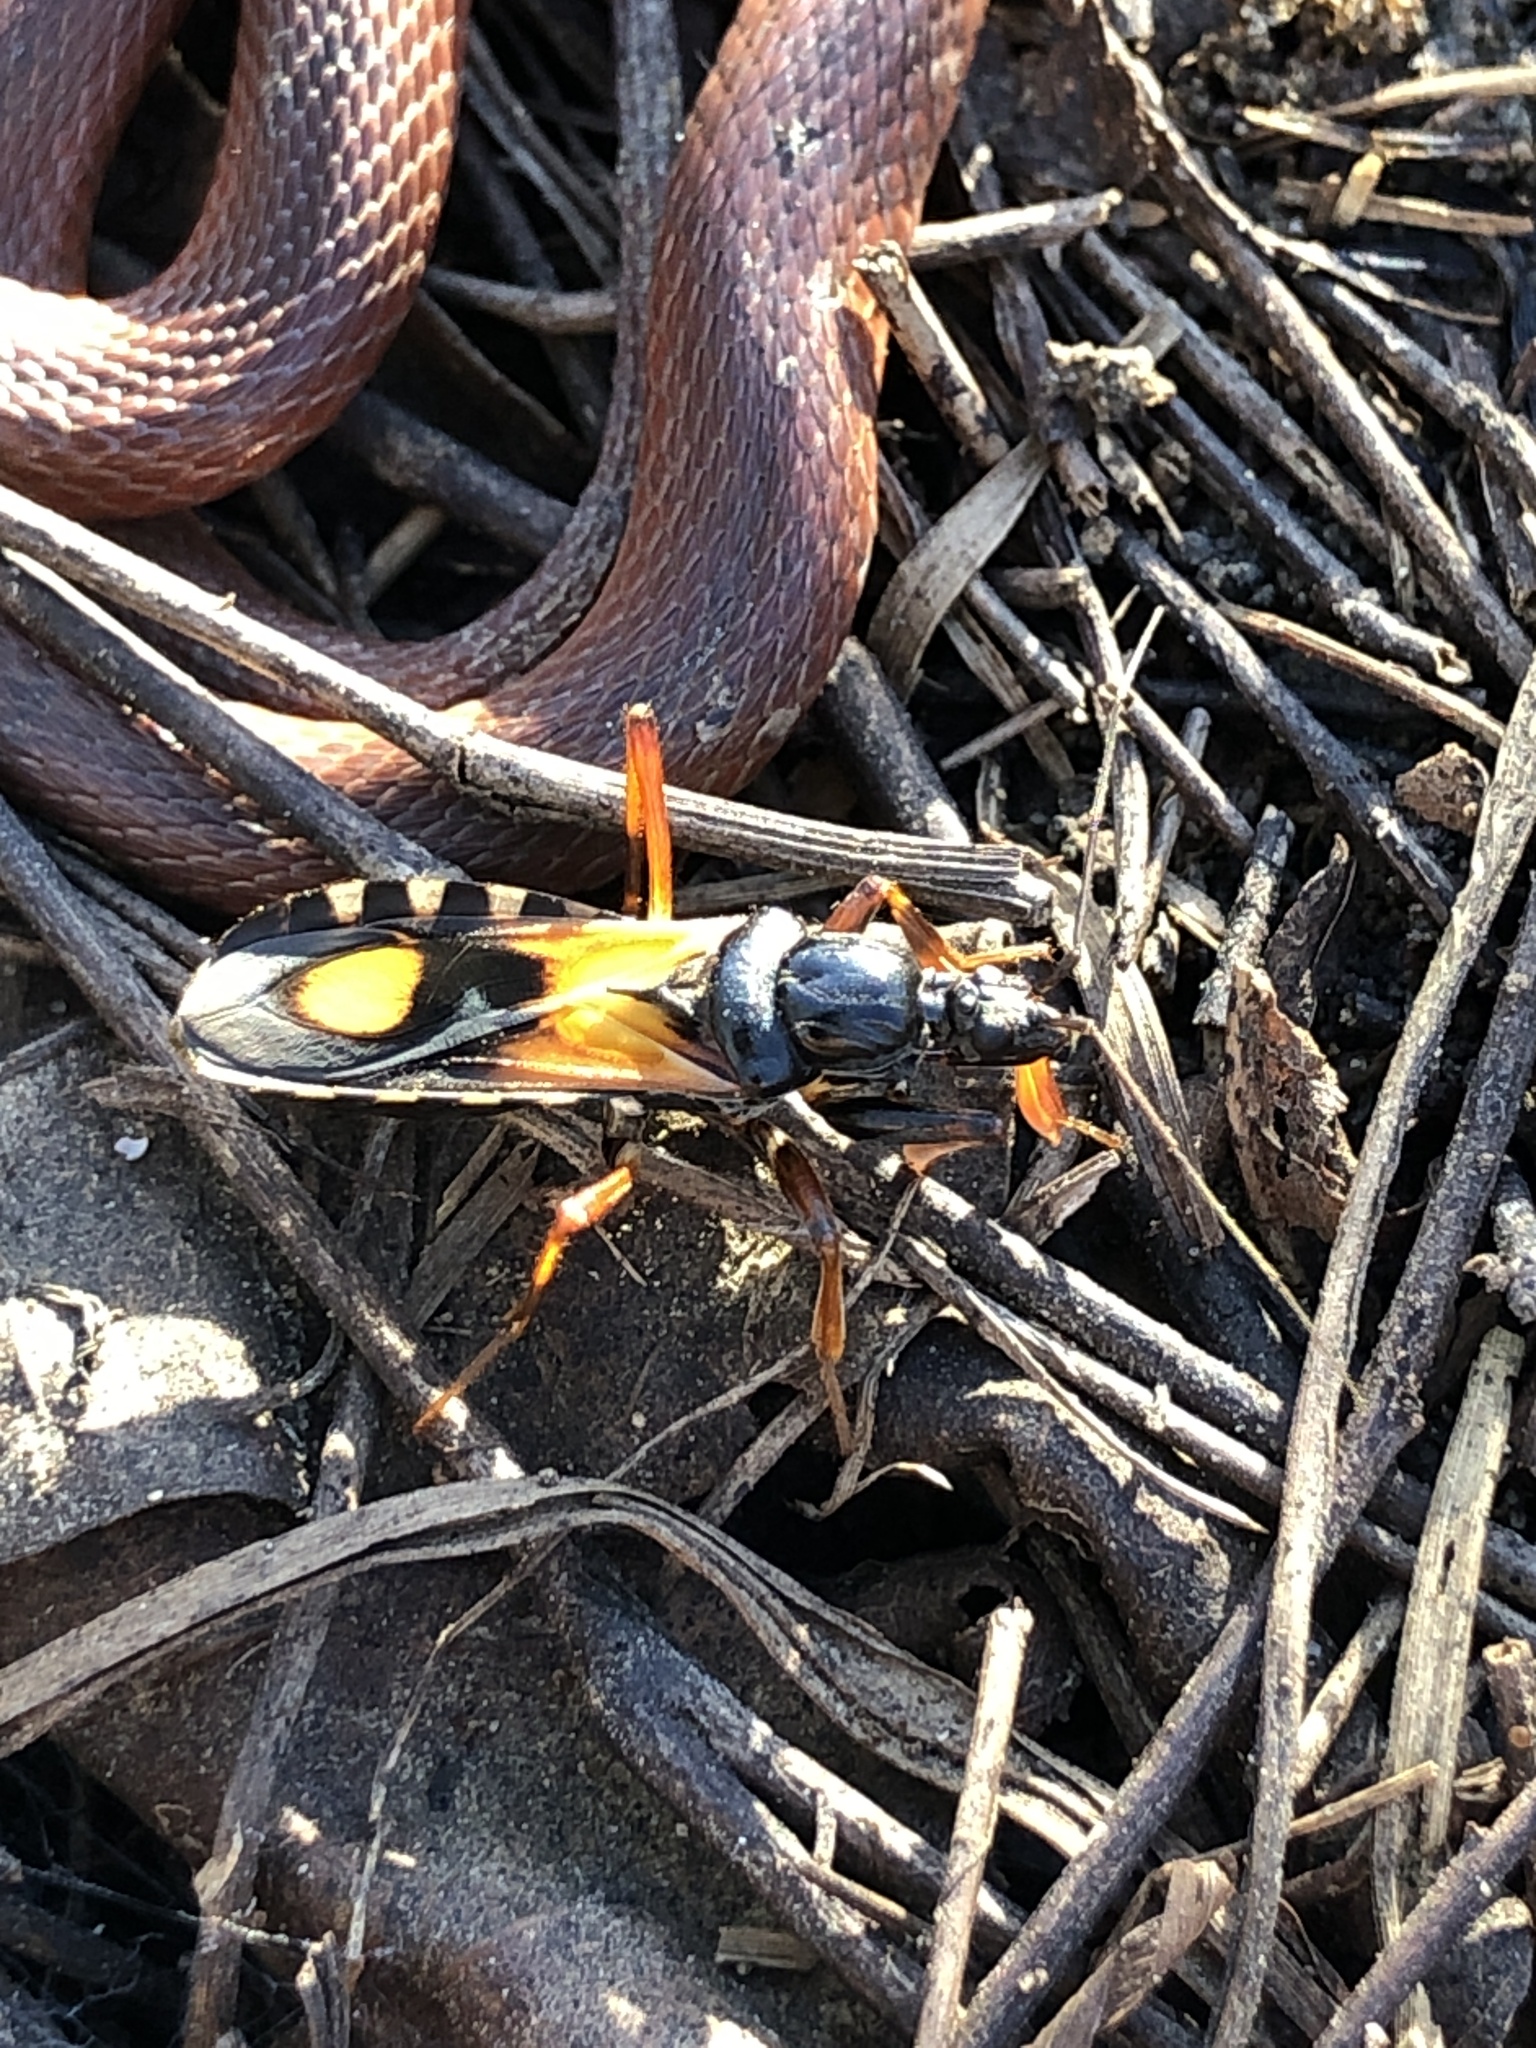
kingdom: Animalia
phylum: Arthropoda
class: Insecta
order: Hemiptera
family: Reduviidae
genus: Rasahus
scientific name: Rasahus biguttatus
